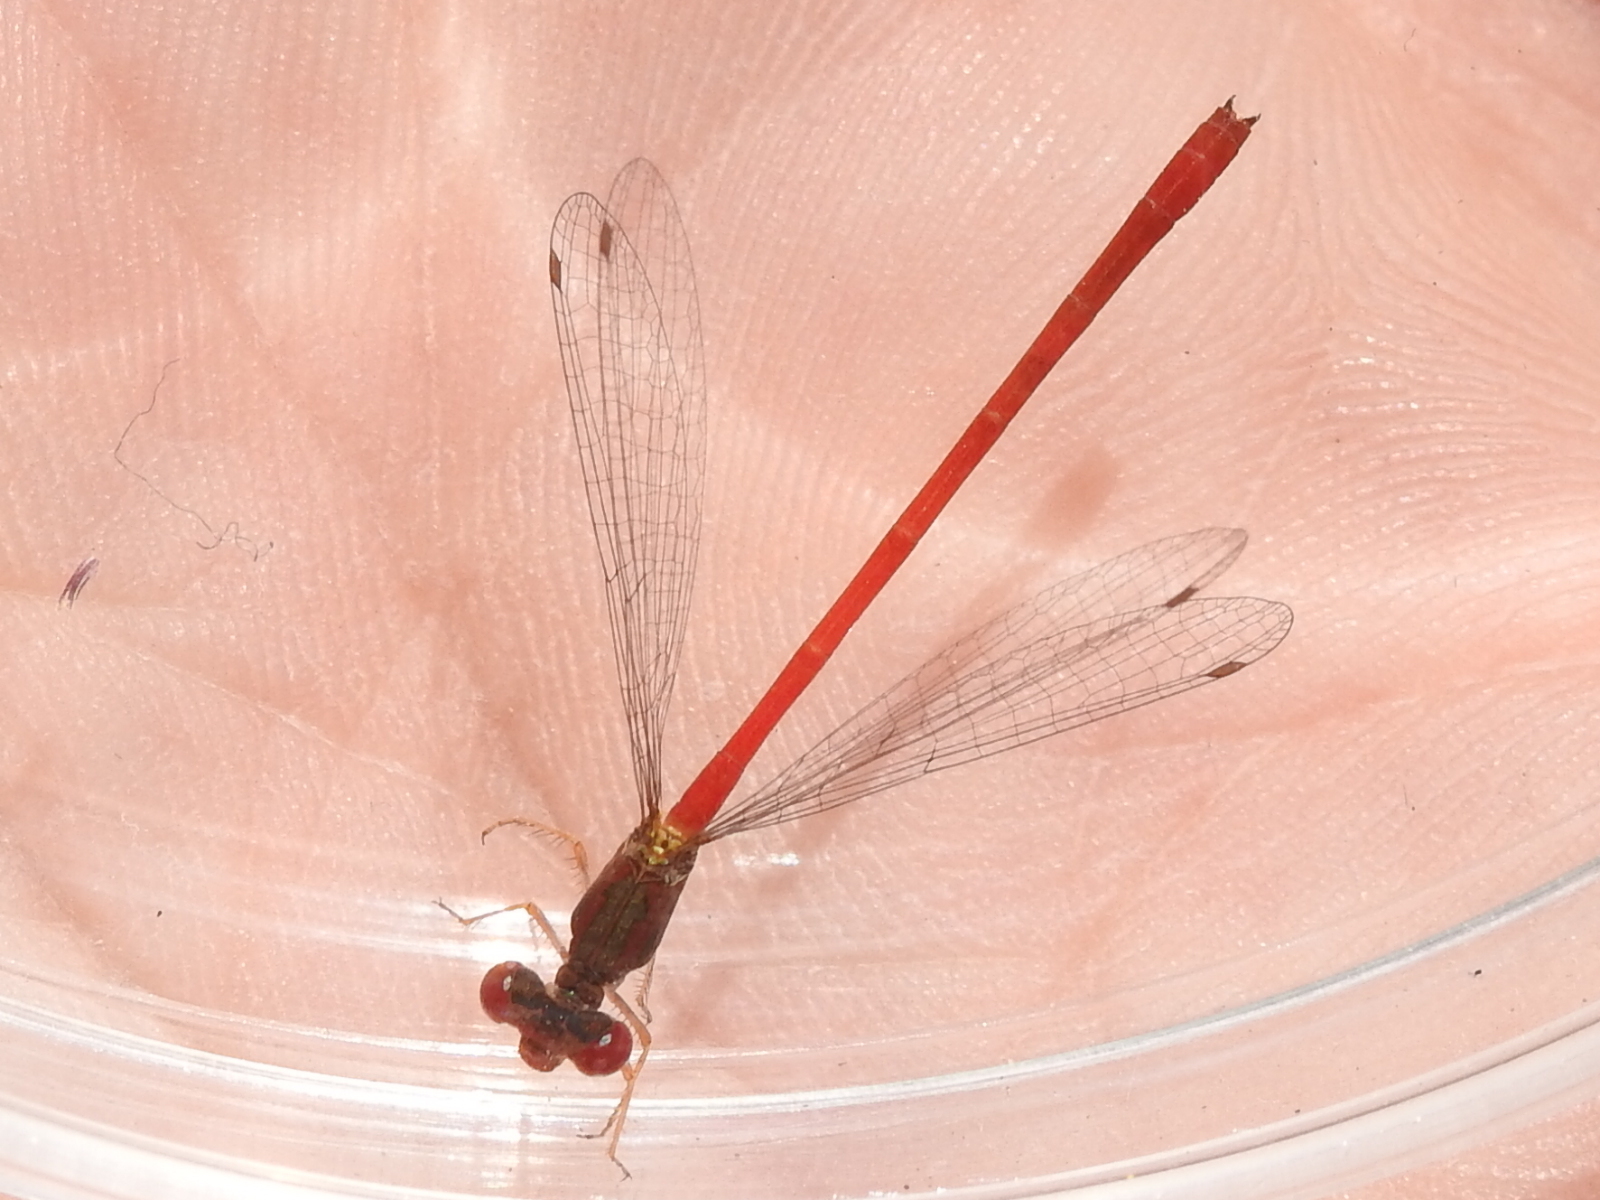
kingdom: Animalia
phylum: Arthropoda
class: Insecta
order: Odonata
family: Coenagrionidae
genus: Telebasis
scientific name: Telebasis salva
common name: Desert firetail
